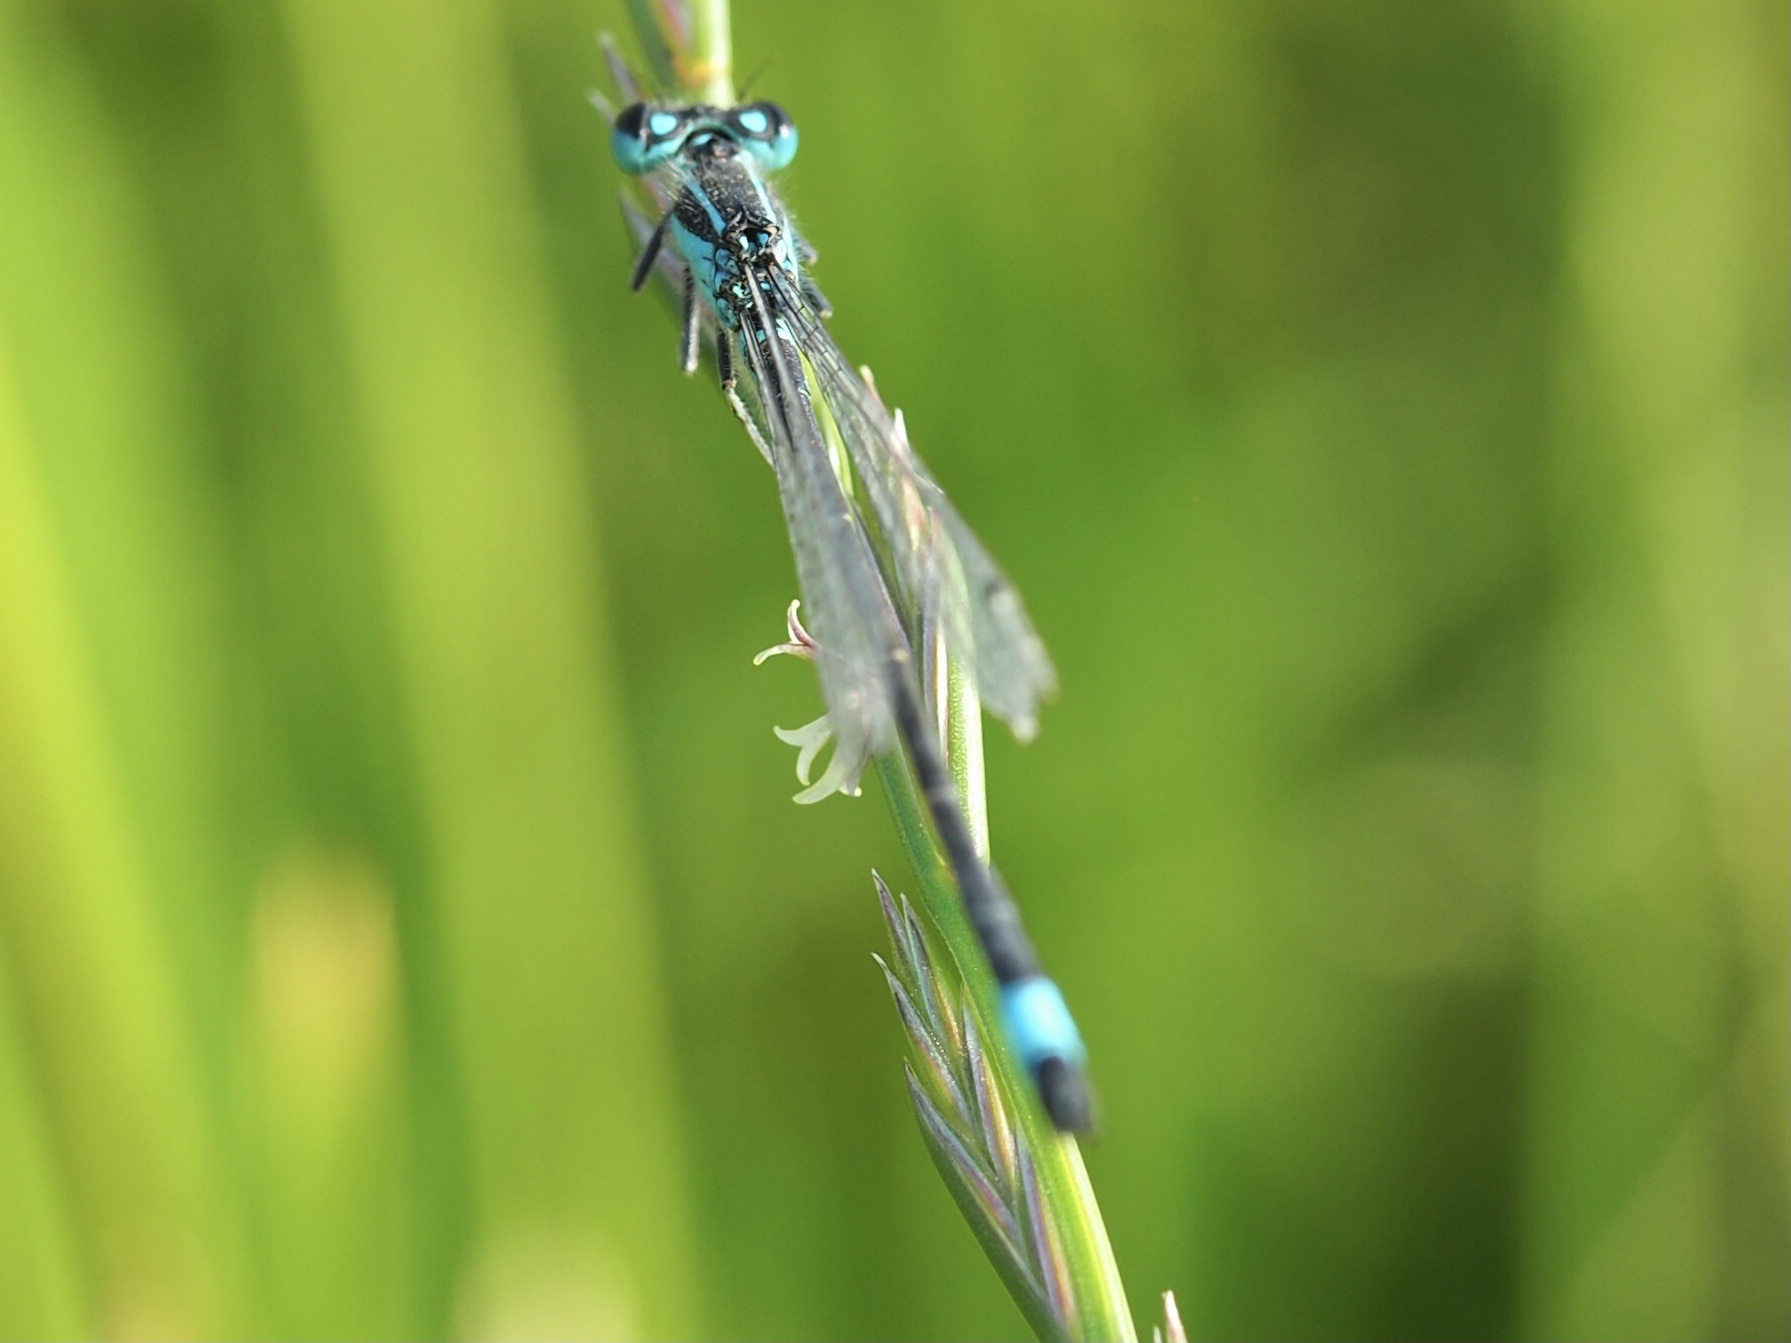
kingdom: Animalia
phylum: Arthropoda
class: Insecta
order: Odonata
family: Coenagrionidae
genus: Ischnura
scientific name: Ischnura elegans
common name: Blue-tailed damselfly
